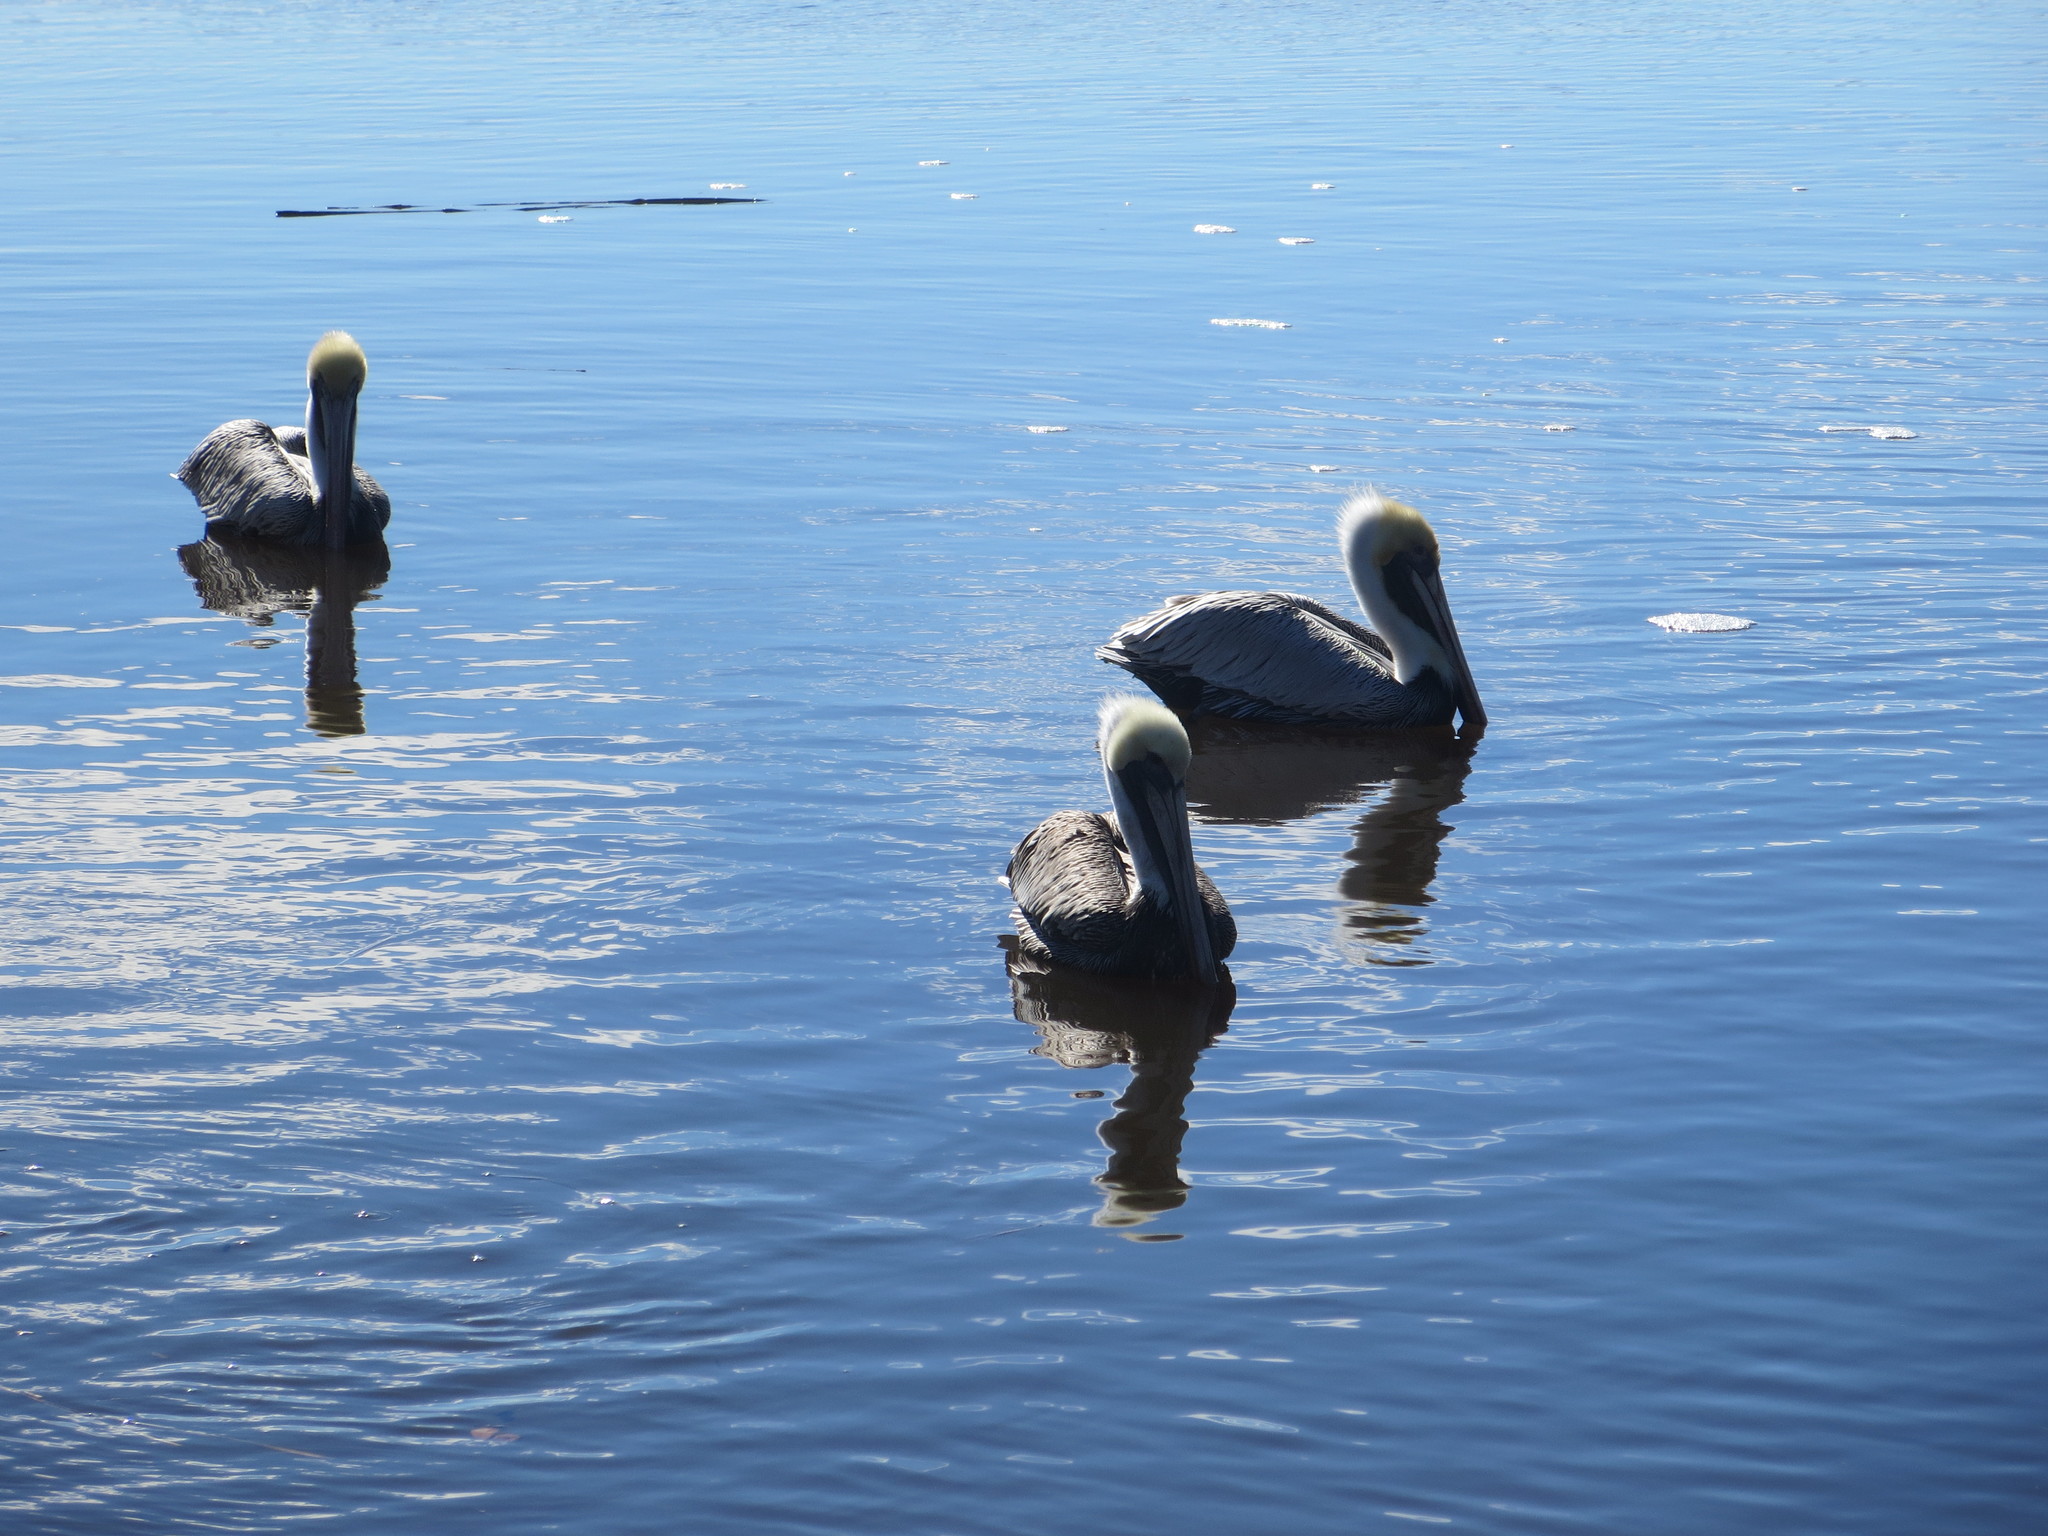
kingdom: Animalia
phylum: Chordata
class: Aves
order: Pelecaniformes
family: Pelecanidae
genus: Pelecanus
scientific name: Pelecanus occidentalis
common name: Brown pelican
